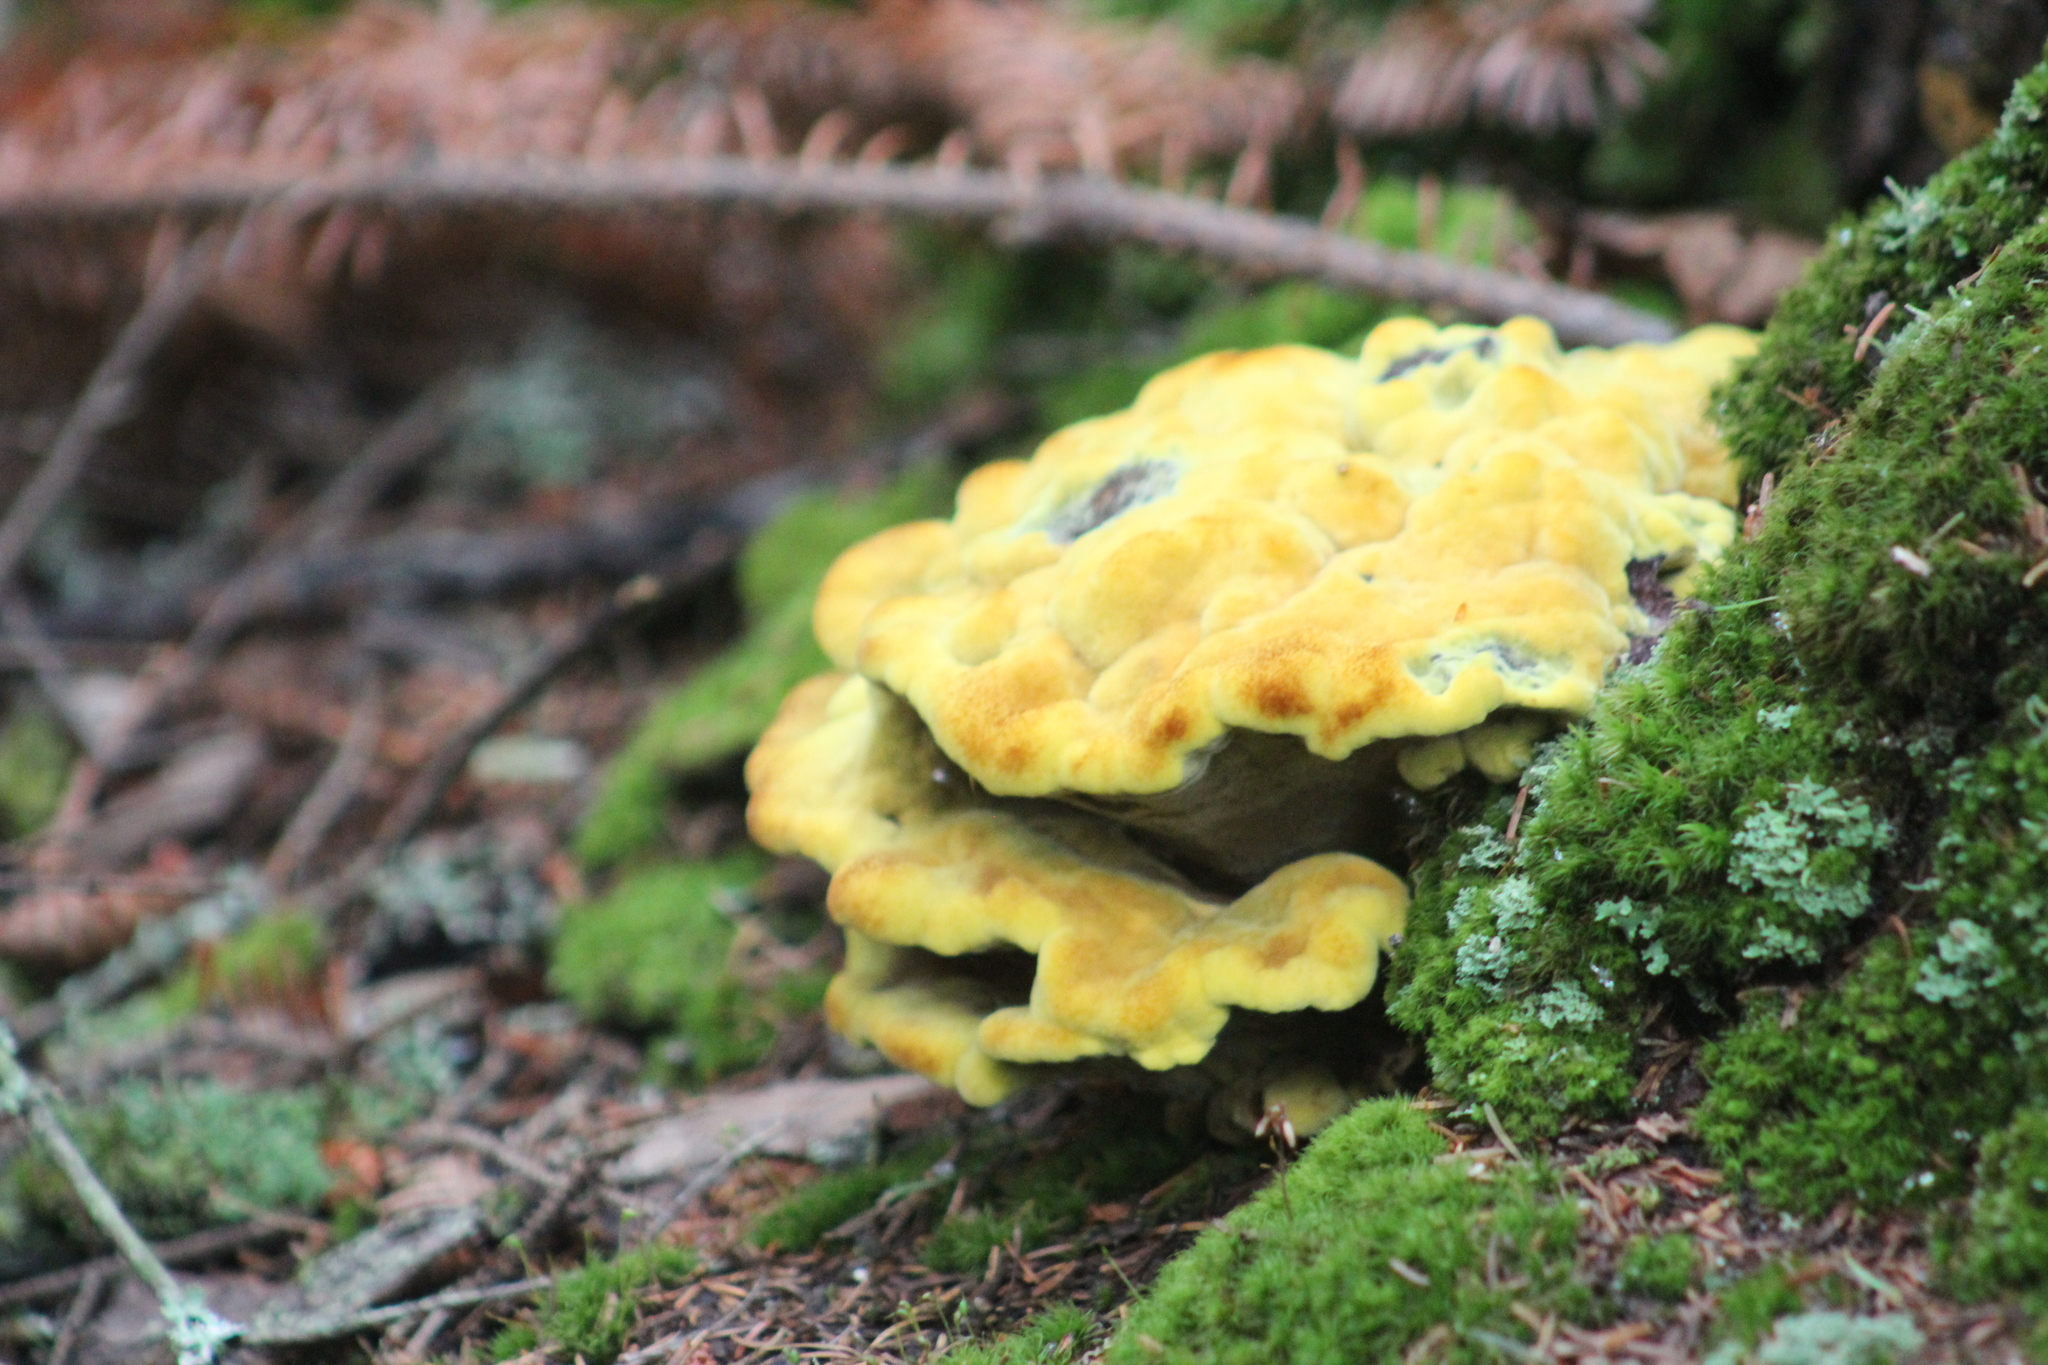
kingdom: Fungi
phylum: Basidiomycota
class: Agaricomycetes
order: Polyporales
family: Laetiporaceae
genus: Phaeolus
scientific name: Phaeolus schweinitzii
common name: Dyer's mazegill
